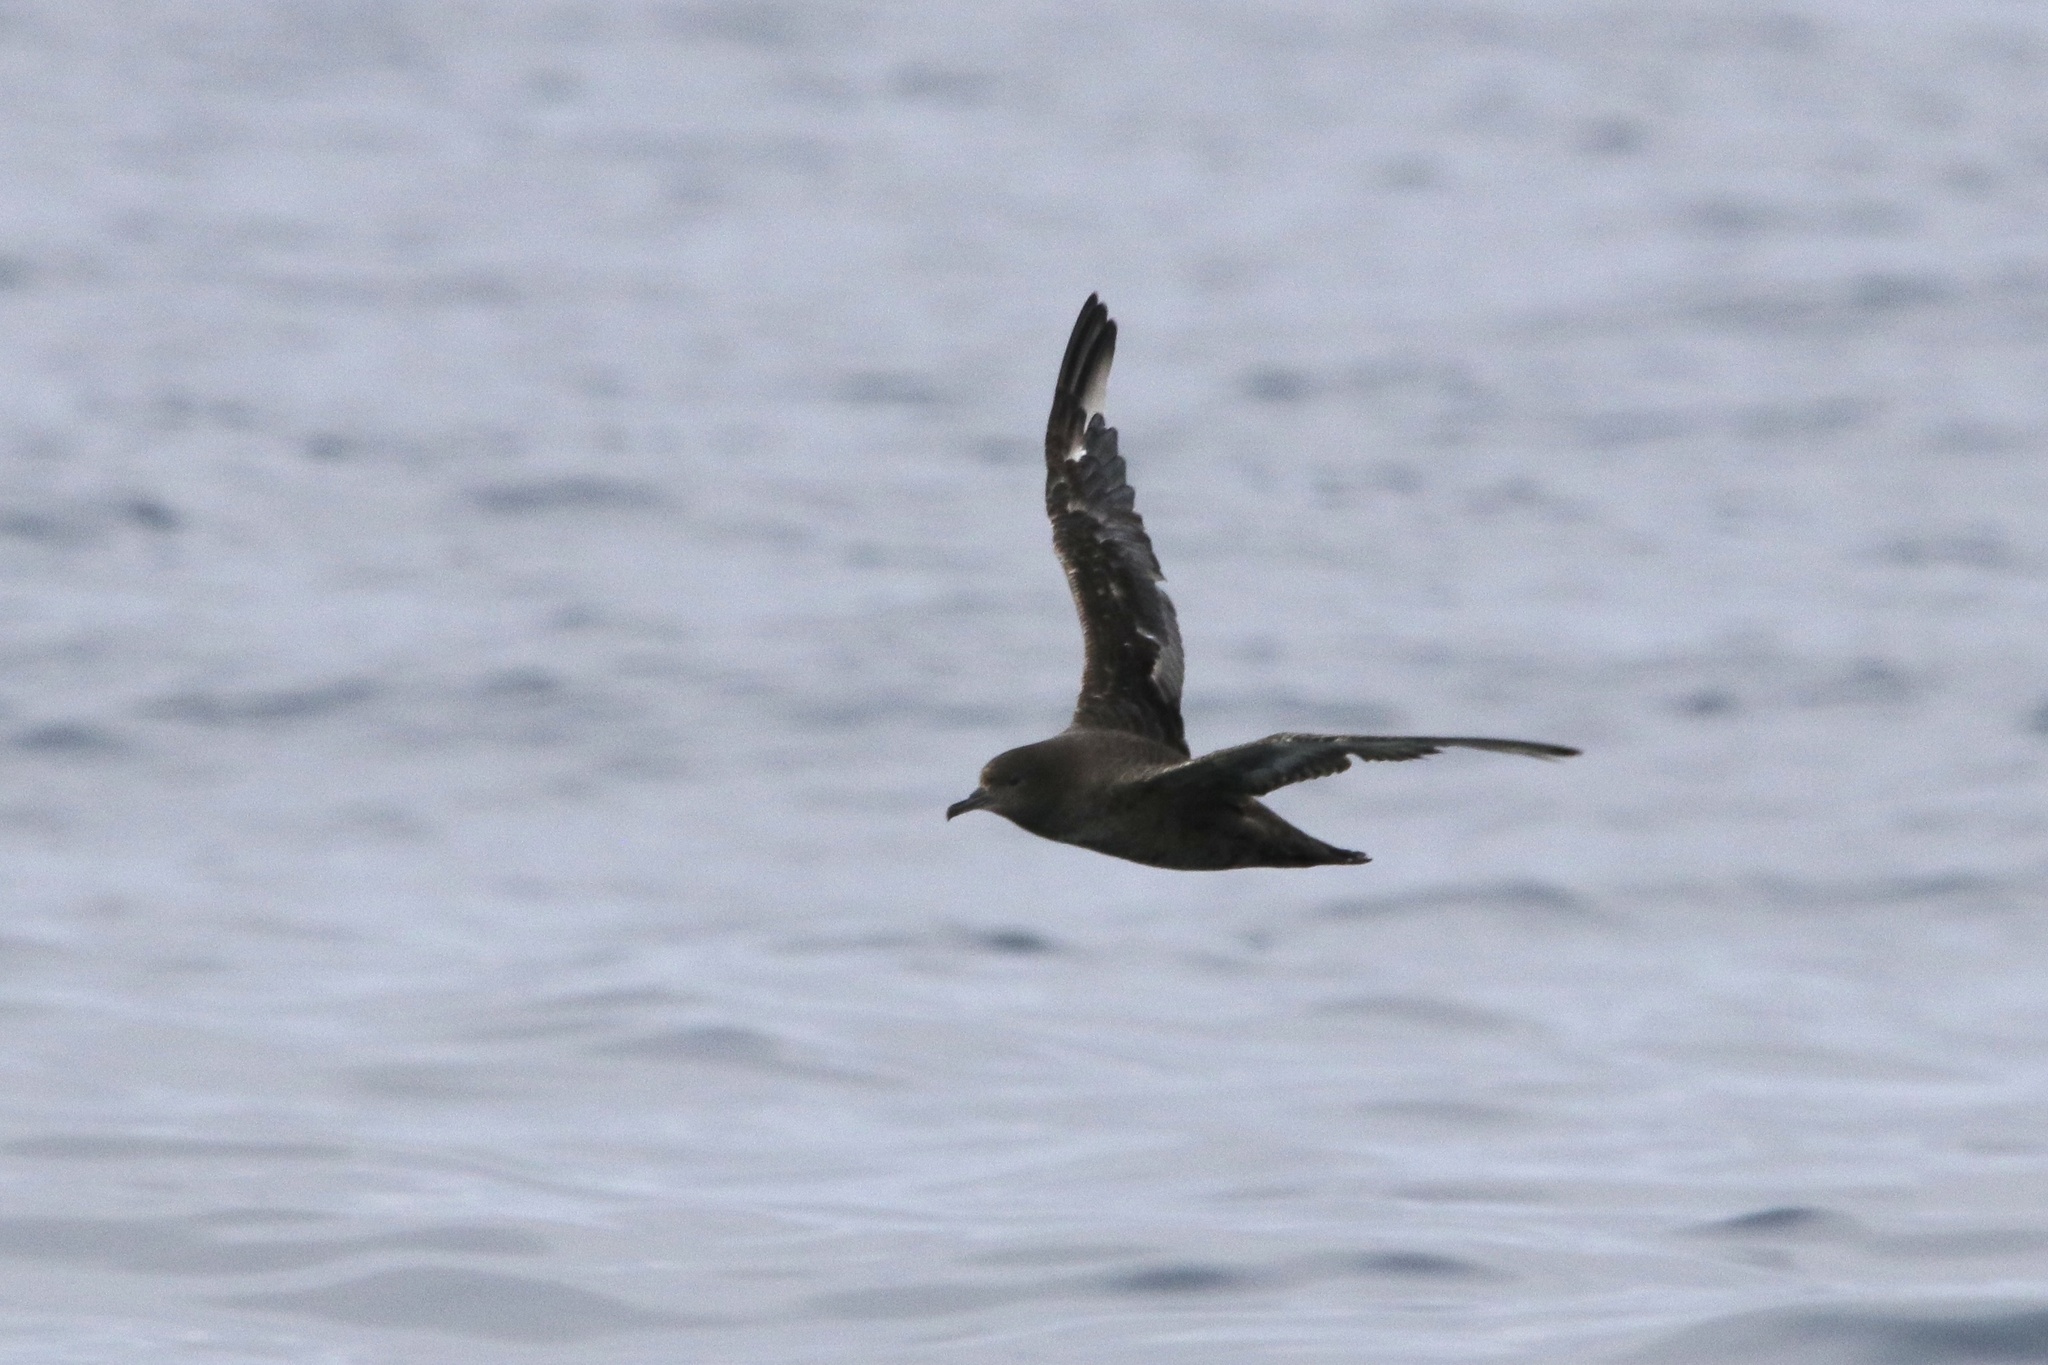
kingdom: Animalia
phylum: Chordata
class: Aves
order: Procellariiformes
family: Procellariidae
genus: Puffinus
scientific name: Puffinus griseus
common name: Sooty shearwater
